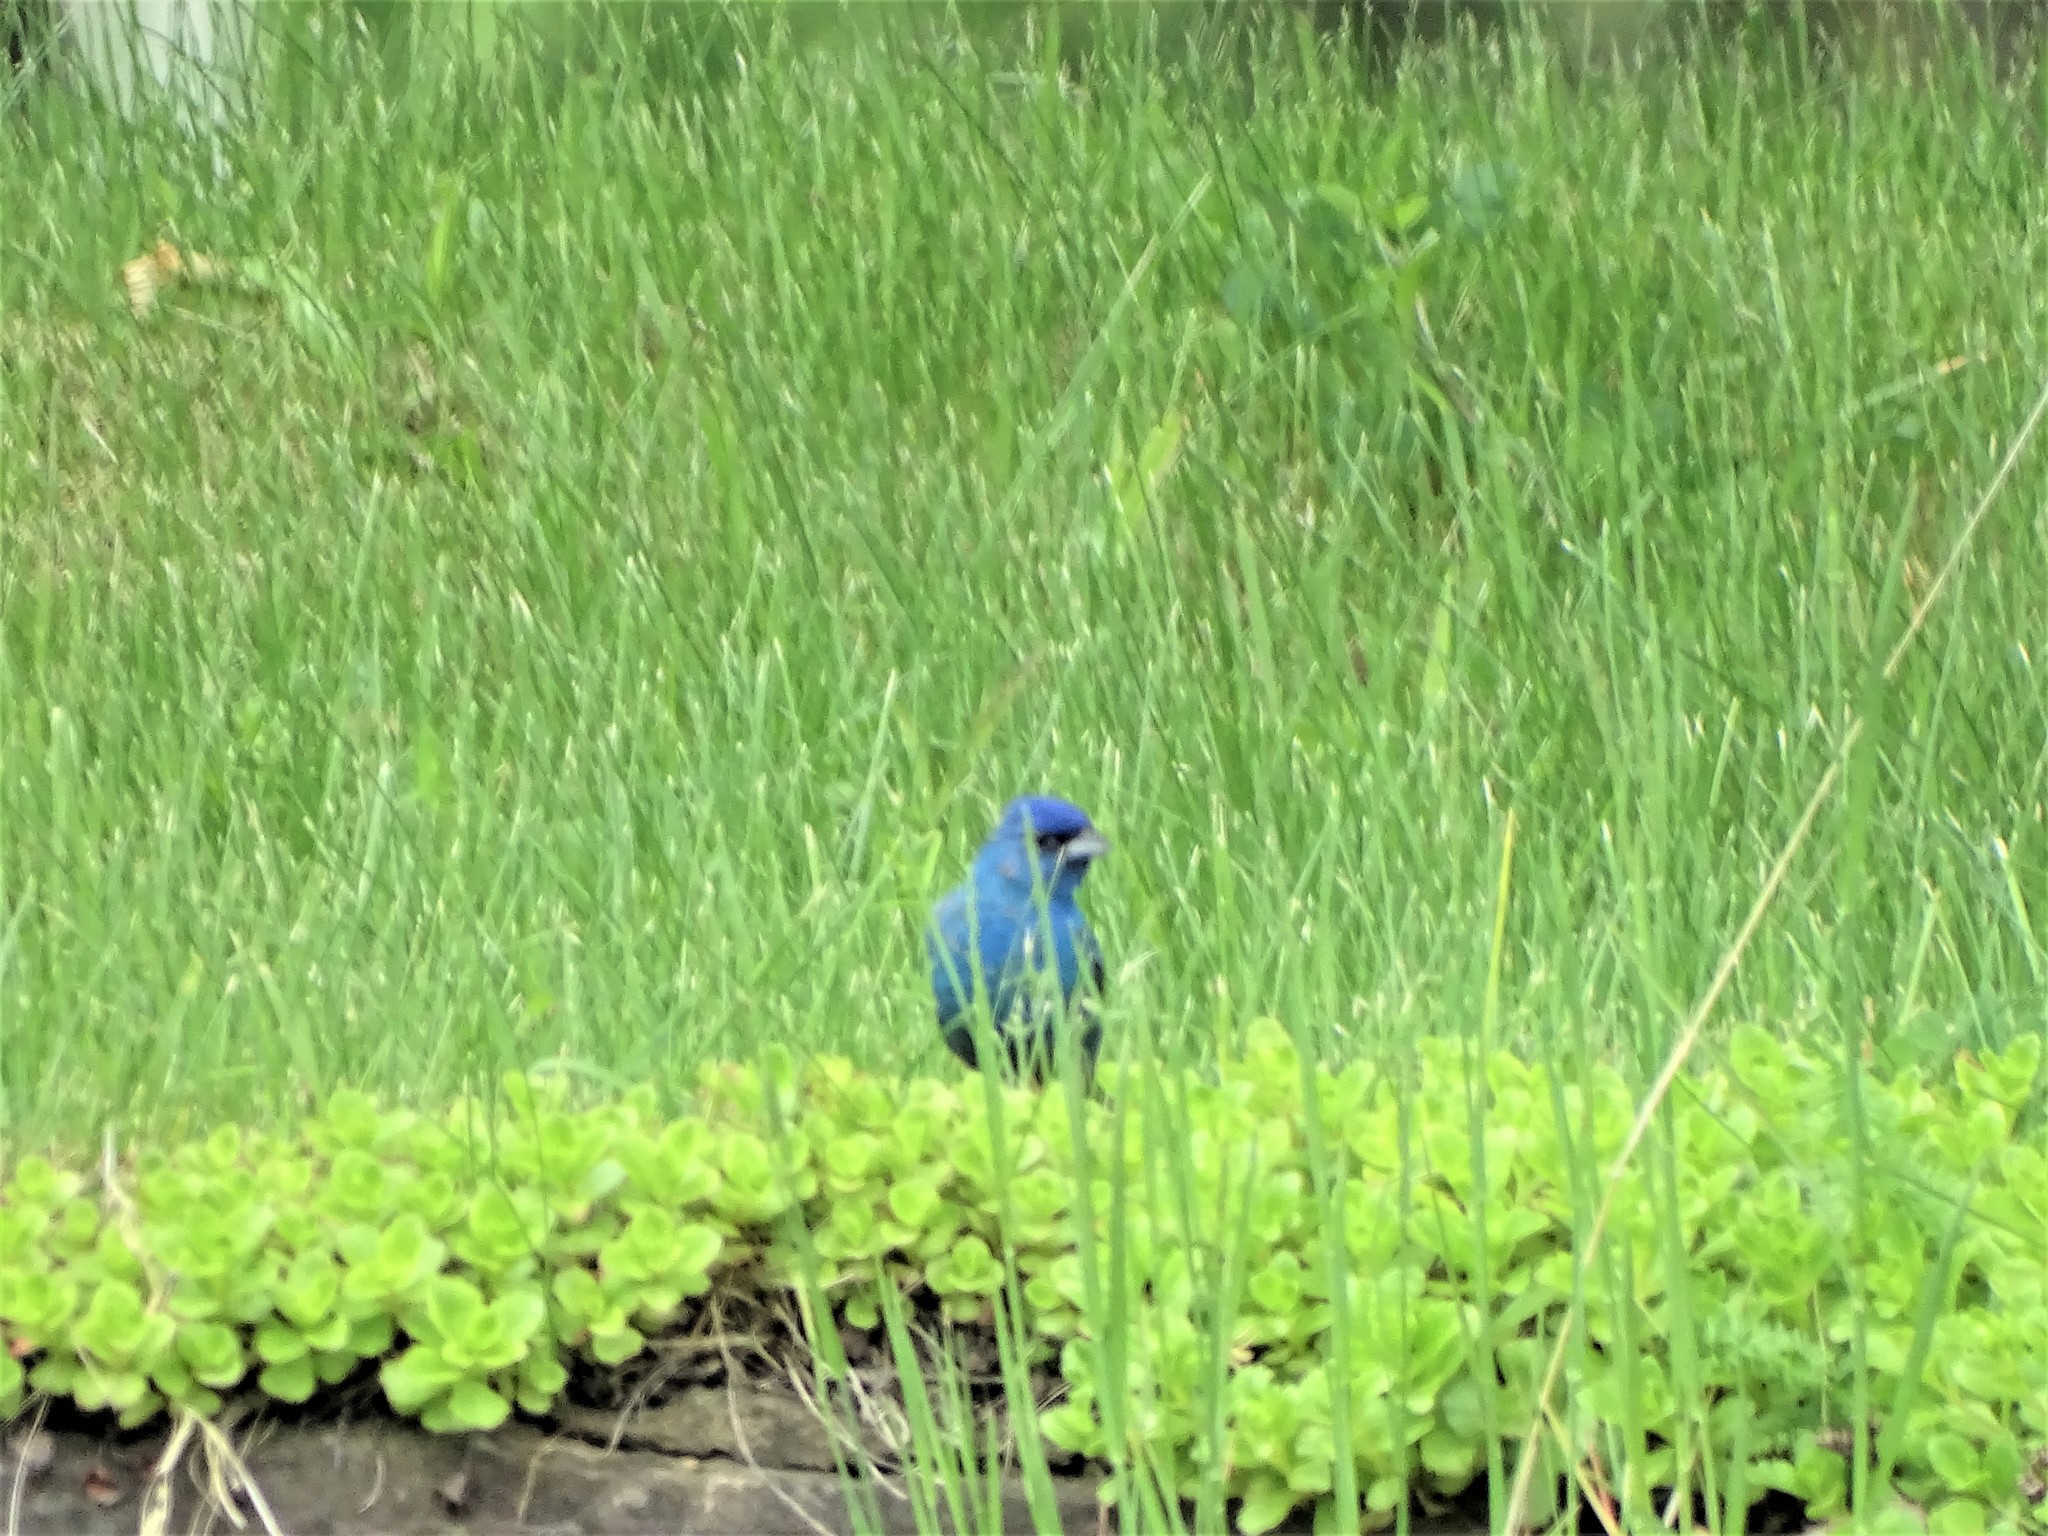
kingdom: Animalia
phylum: Chordata
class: Aves
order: Passeriformes
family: Cardinalidae
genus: Passerina
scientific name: Passerina cyanea
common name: Indigo bunting
